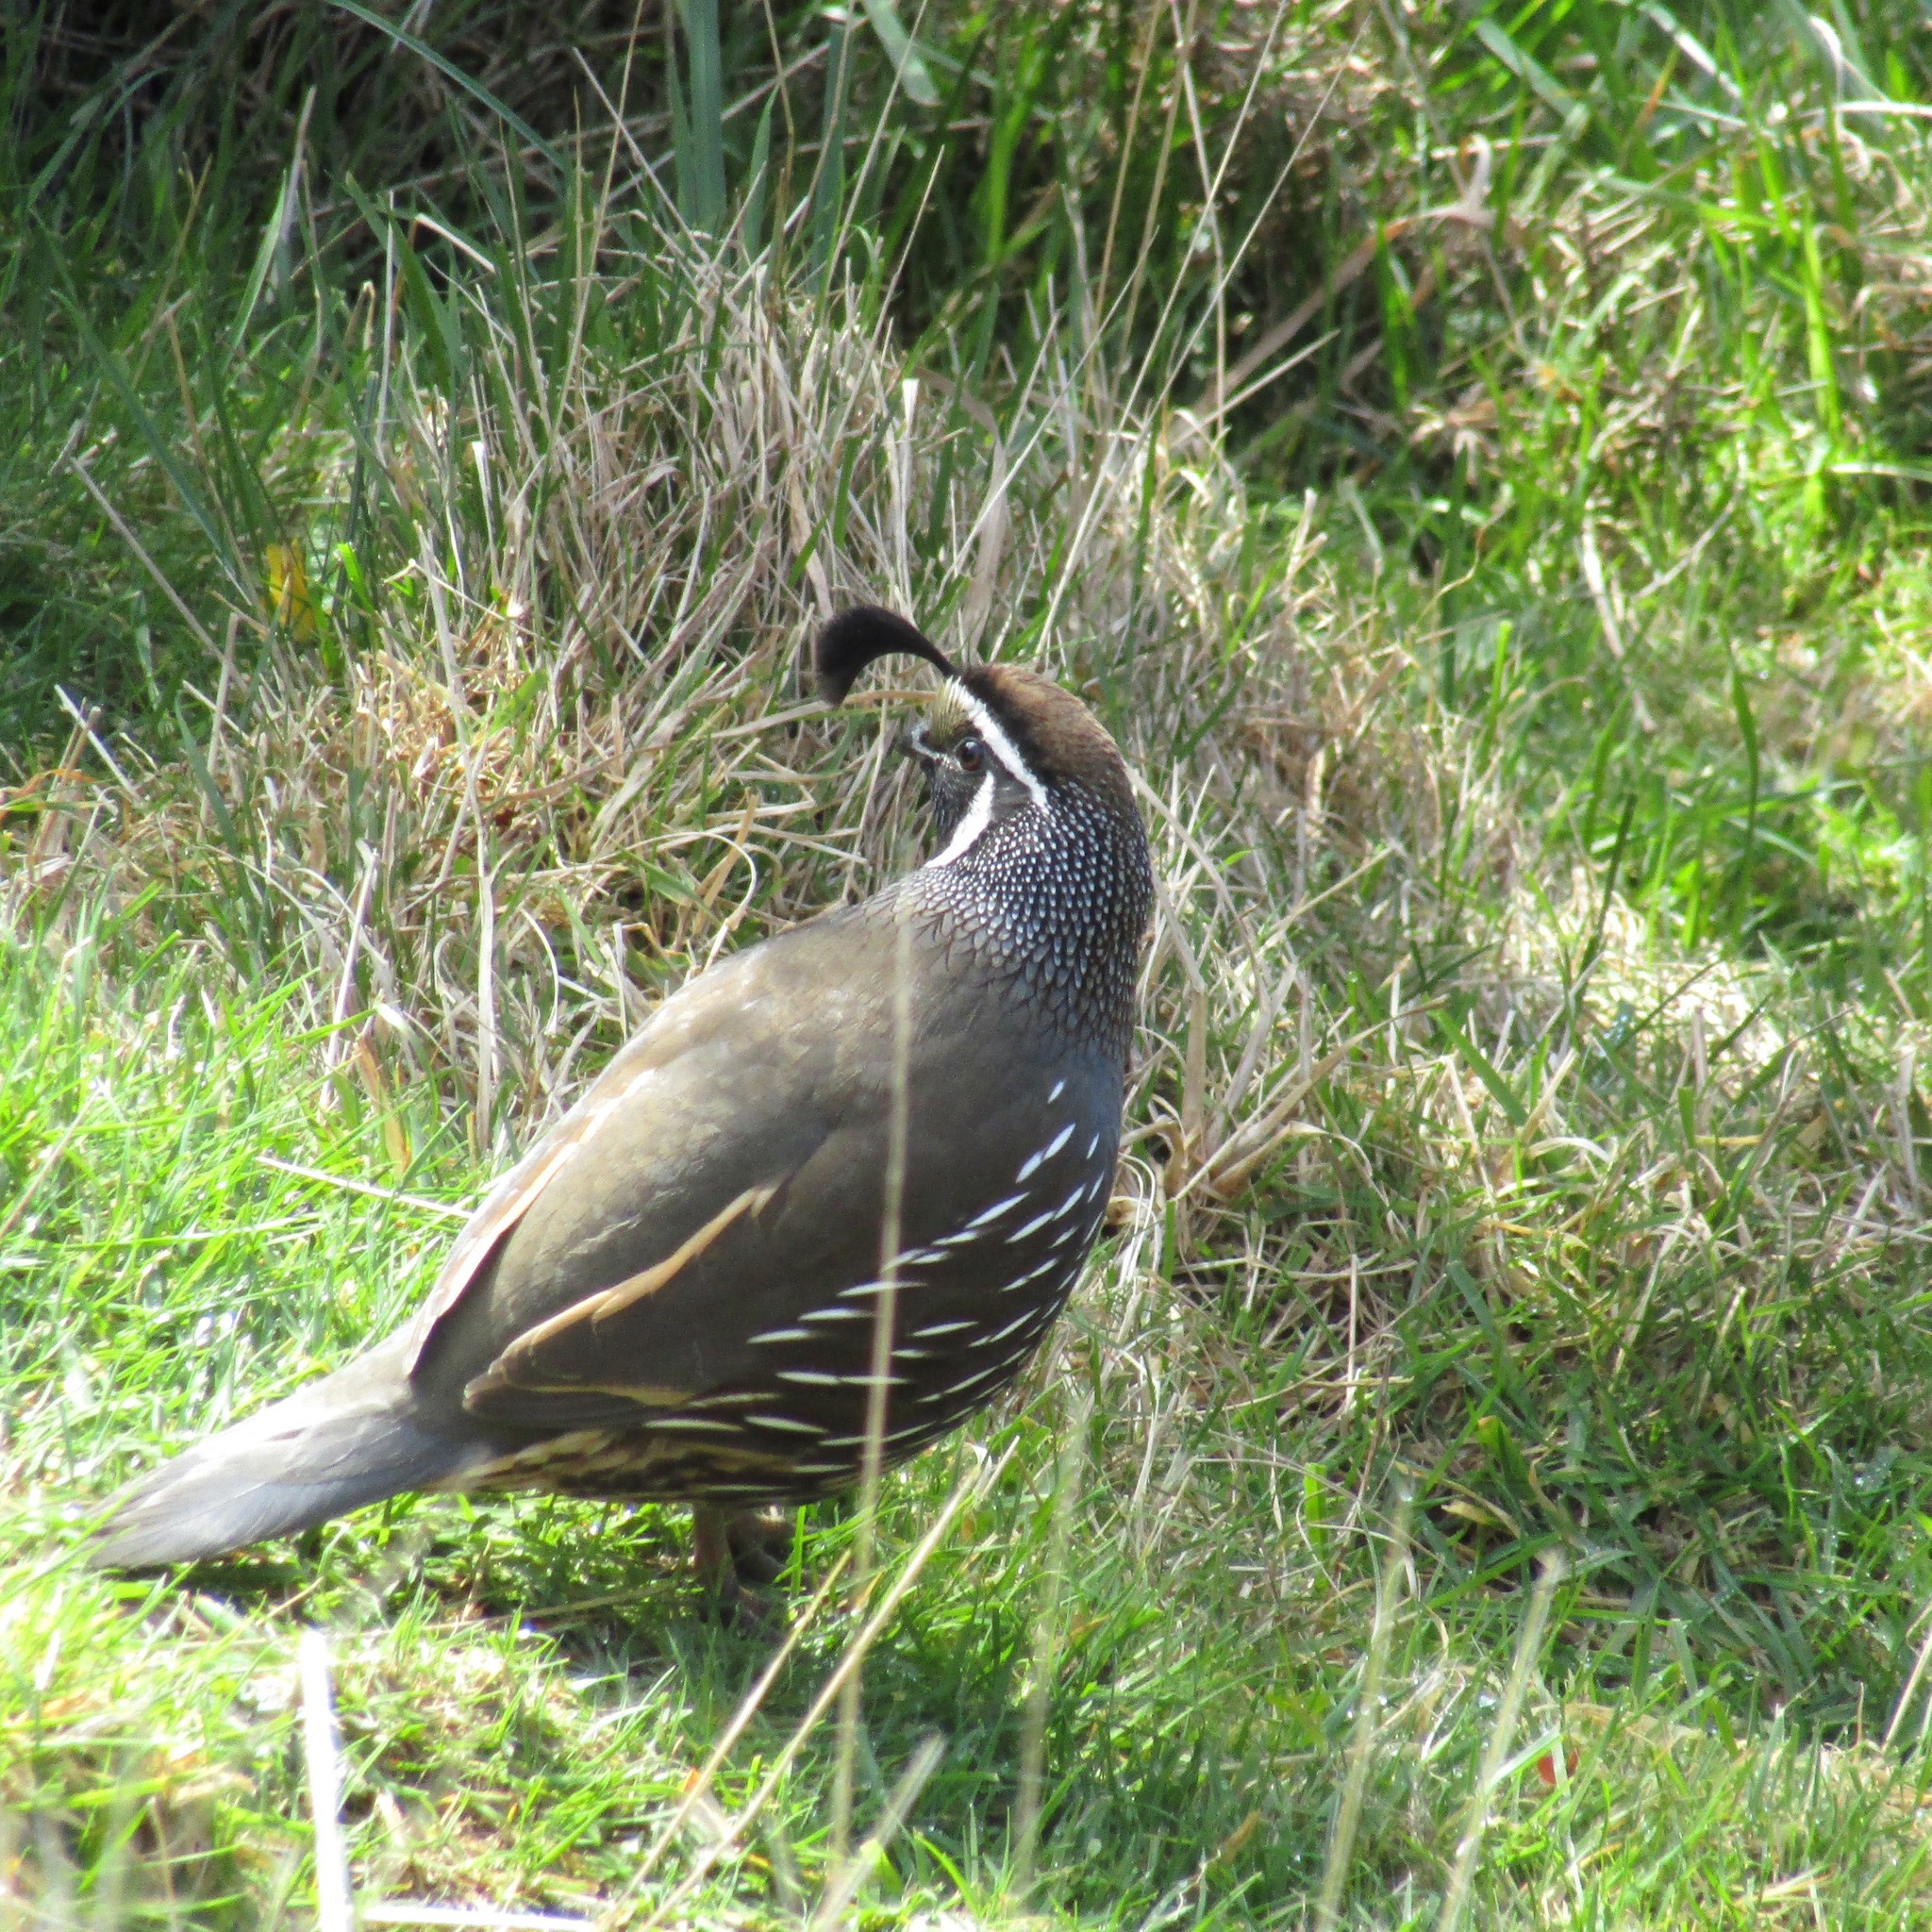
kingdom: Animalia
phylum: Chordata
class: Aves
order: Galliformes
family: Odontophoridae
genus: Callipepla
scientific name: Callipepla californica
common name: California quail
